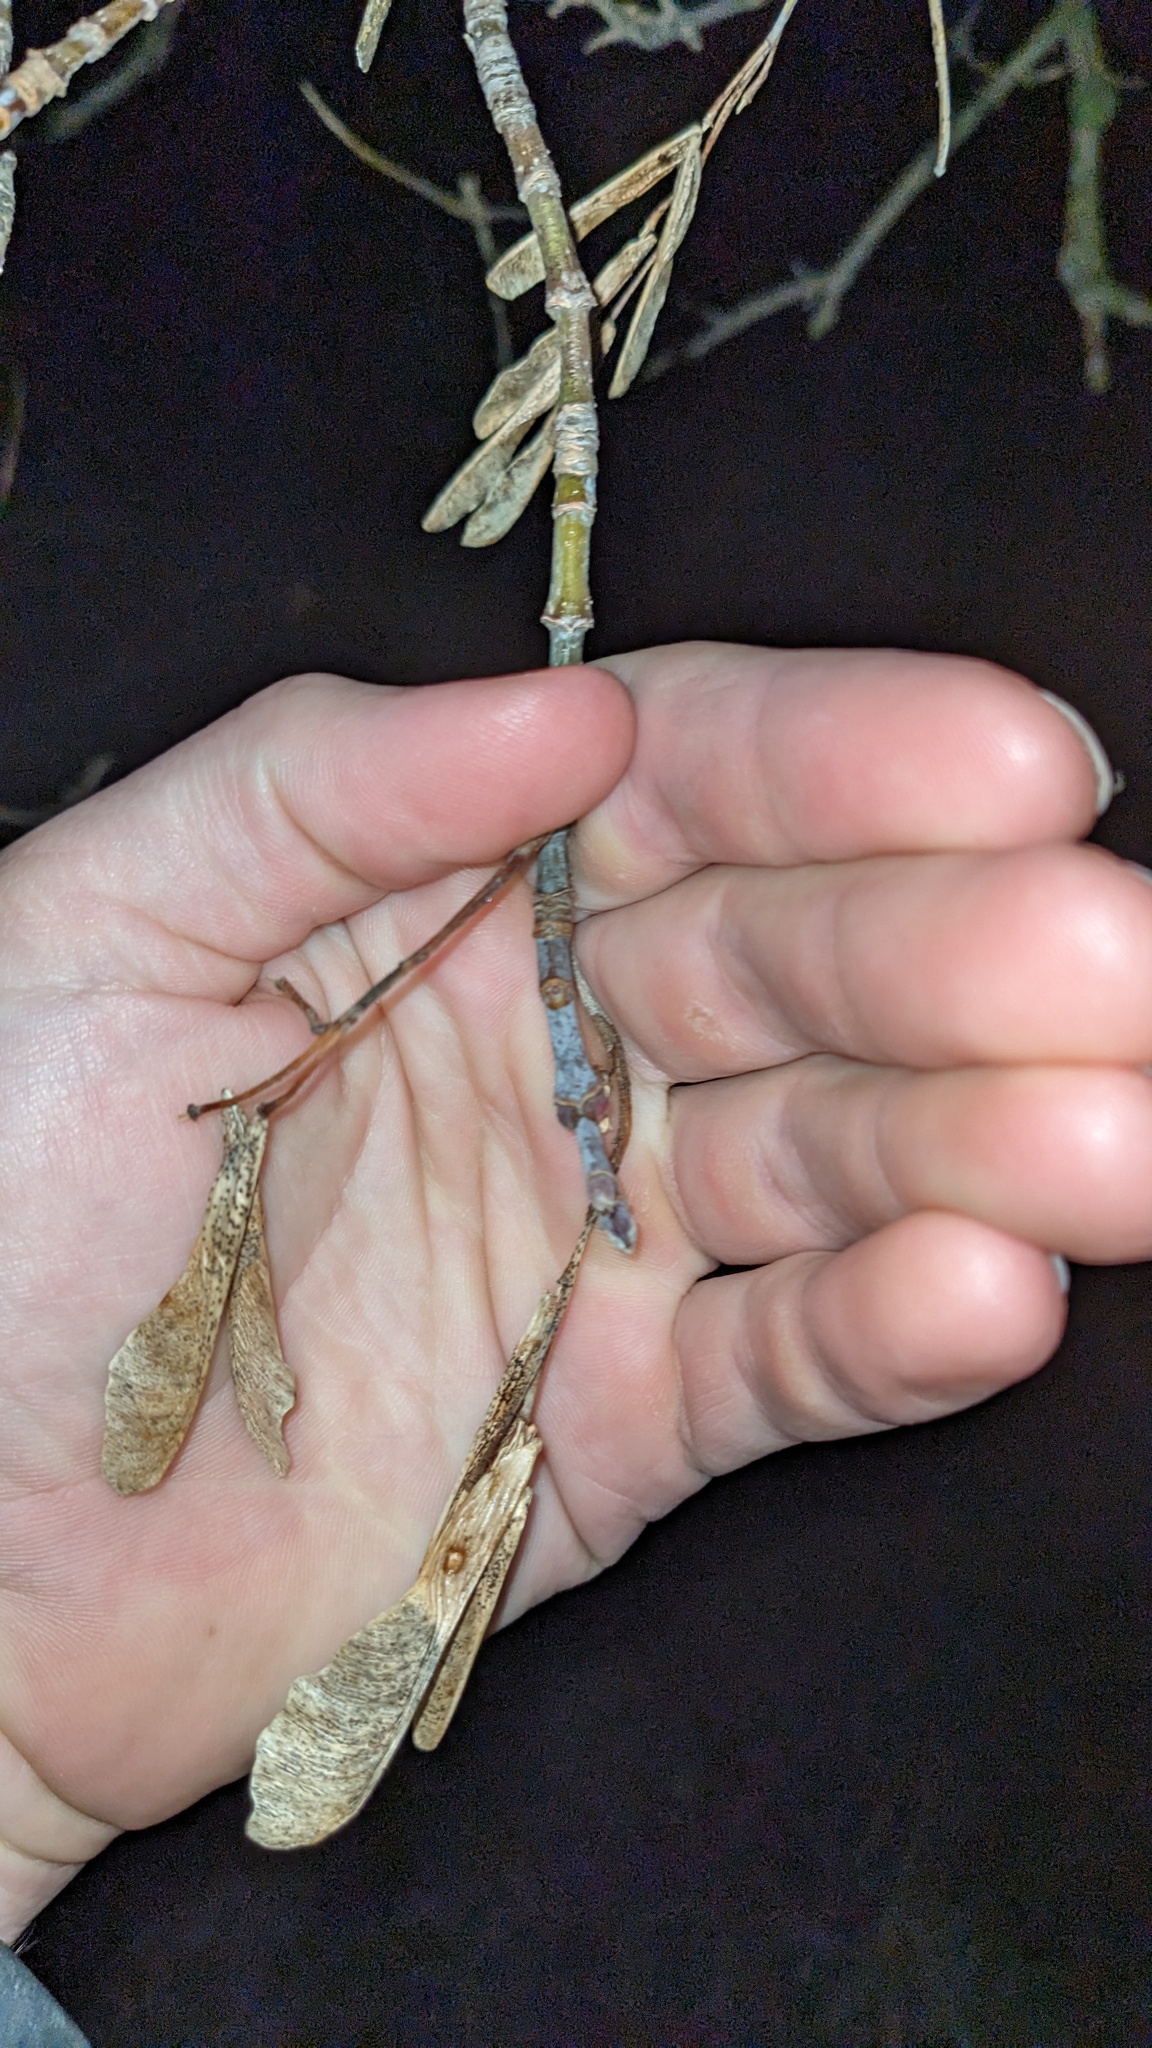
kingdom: Plantae
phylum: Tracheophyta
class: Magnoliopsida
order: Sapindales
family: Sapindaceae
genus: Acer
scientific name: Acer negundo
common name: Ashleaf maple
